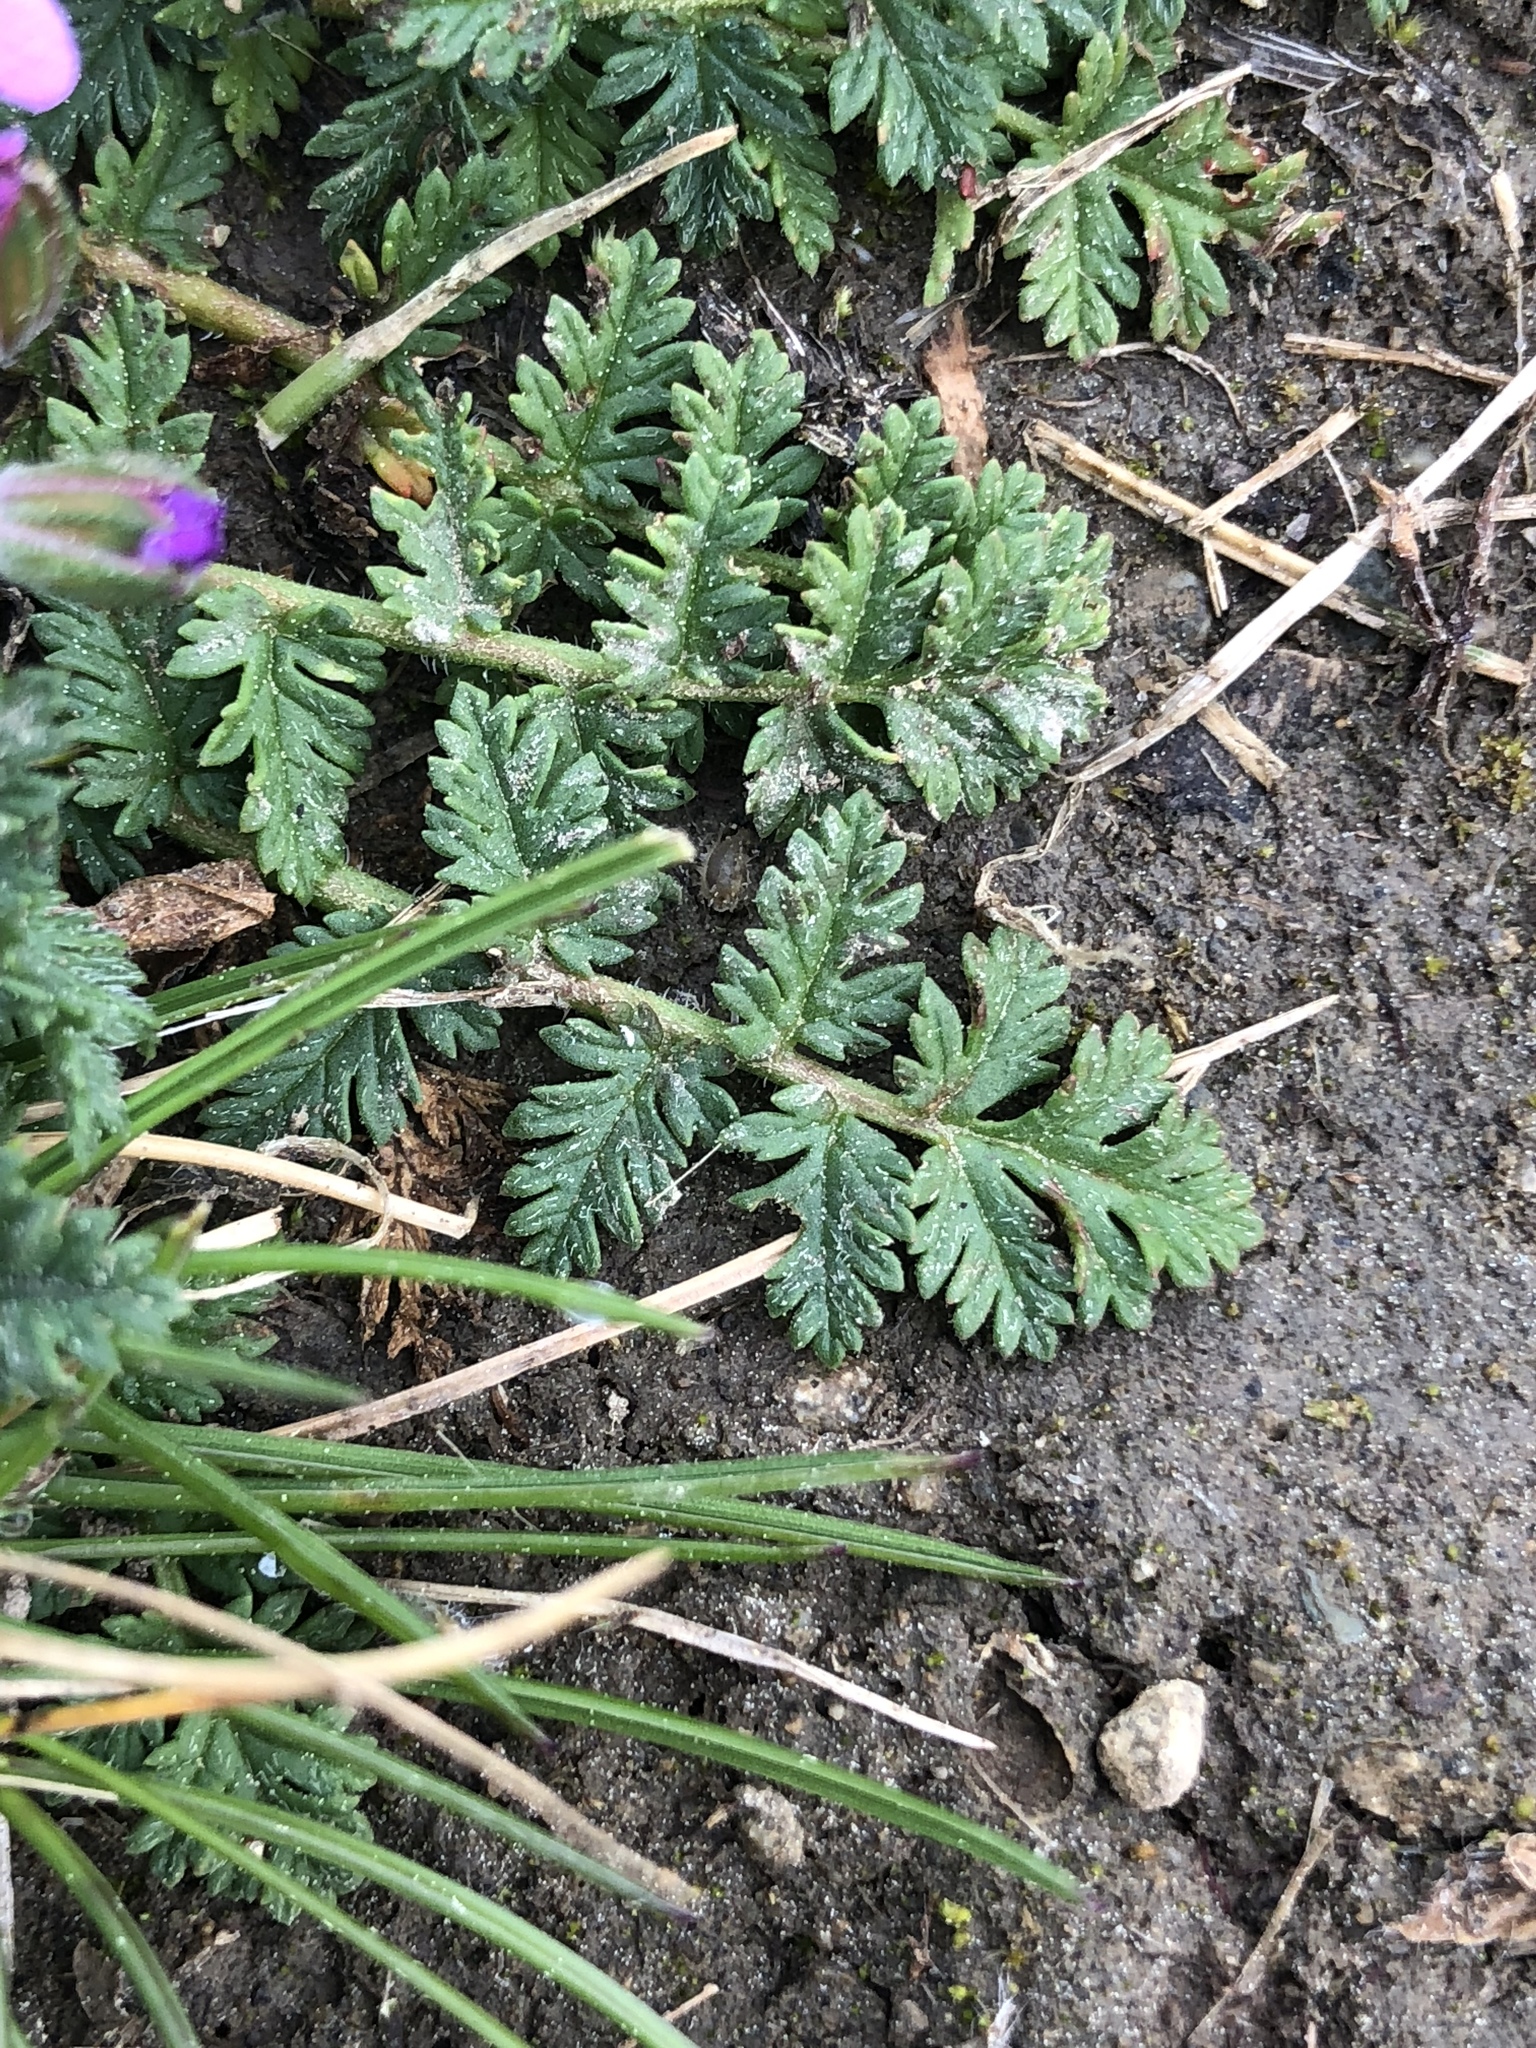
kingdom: Plantae
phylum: Tracheophyta
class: Magnoliopsida
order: Geraniales
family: Geraniaceae
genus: Erodium
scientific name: Erodium cicutarium
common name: Common stork's-bill
